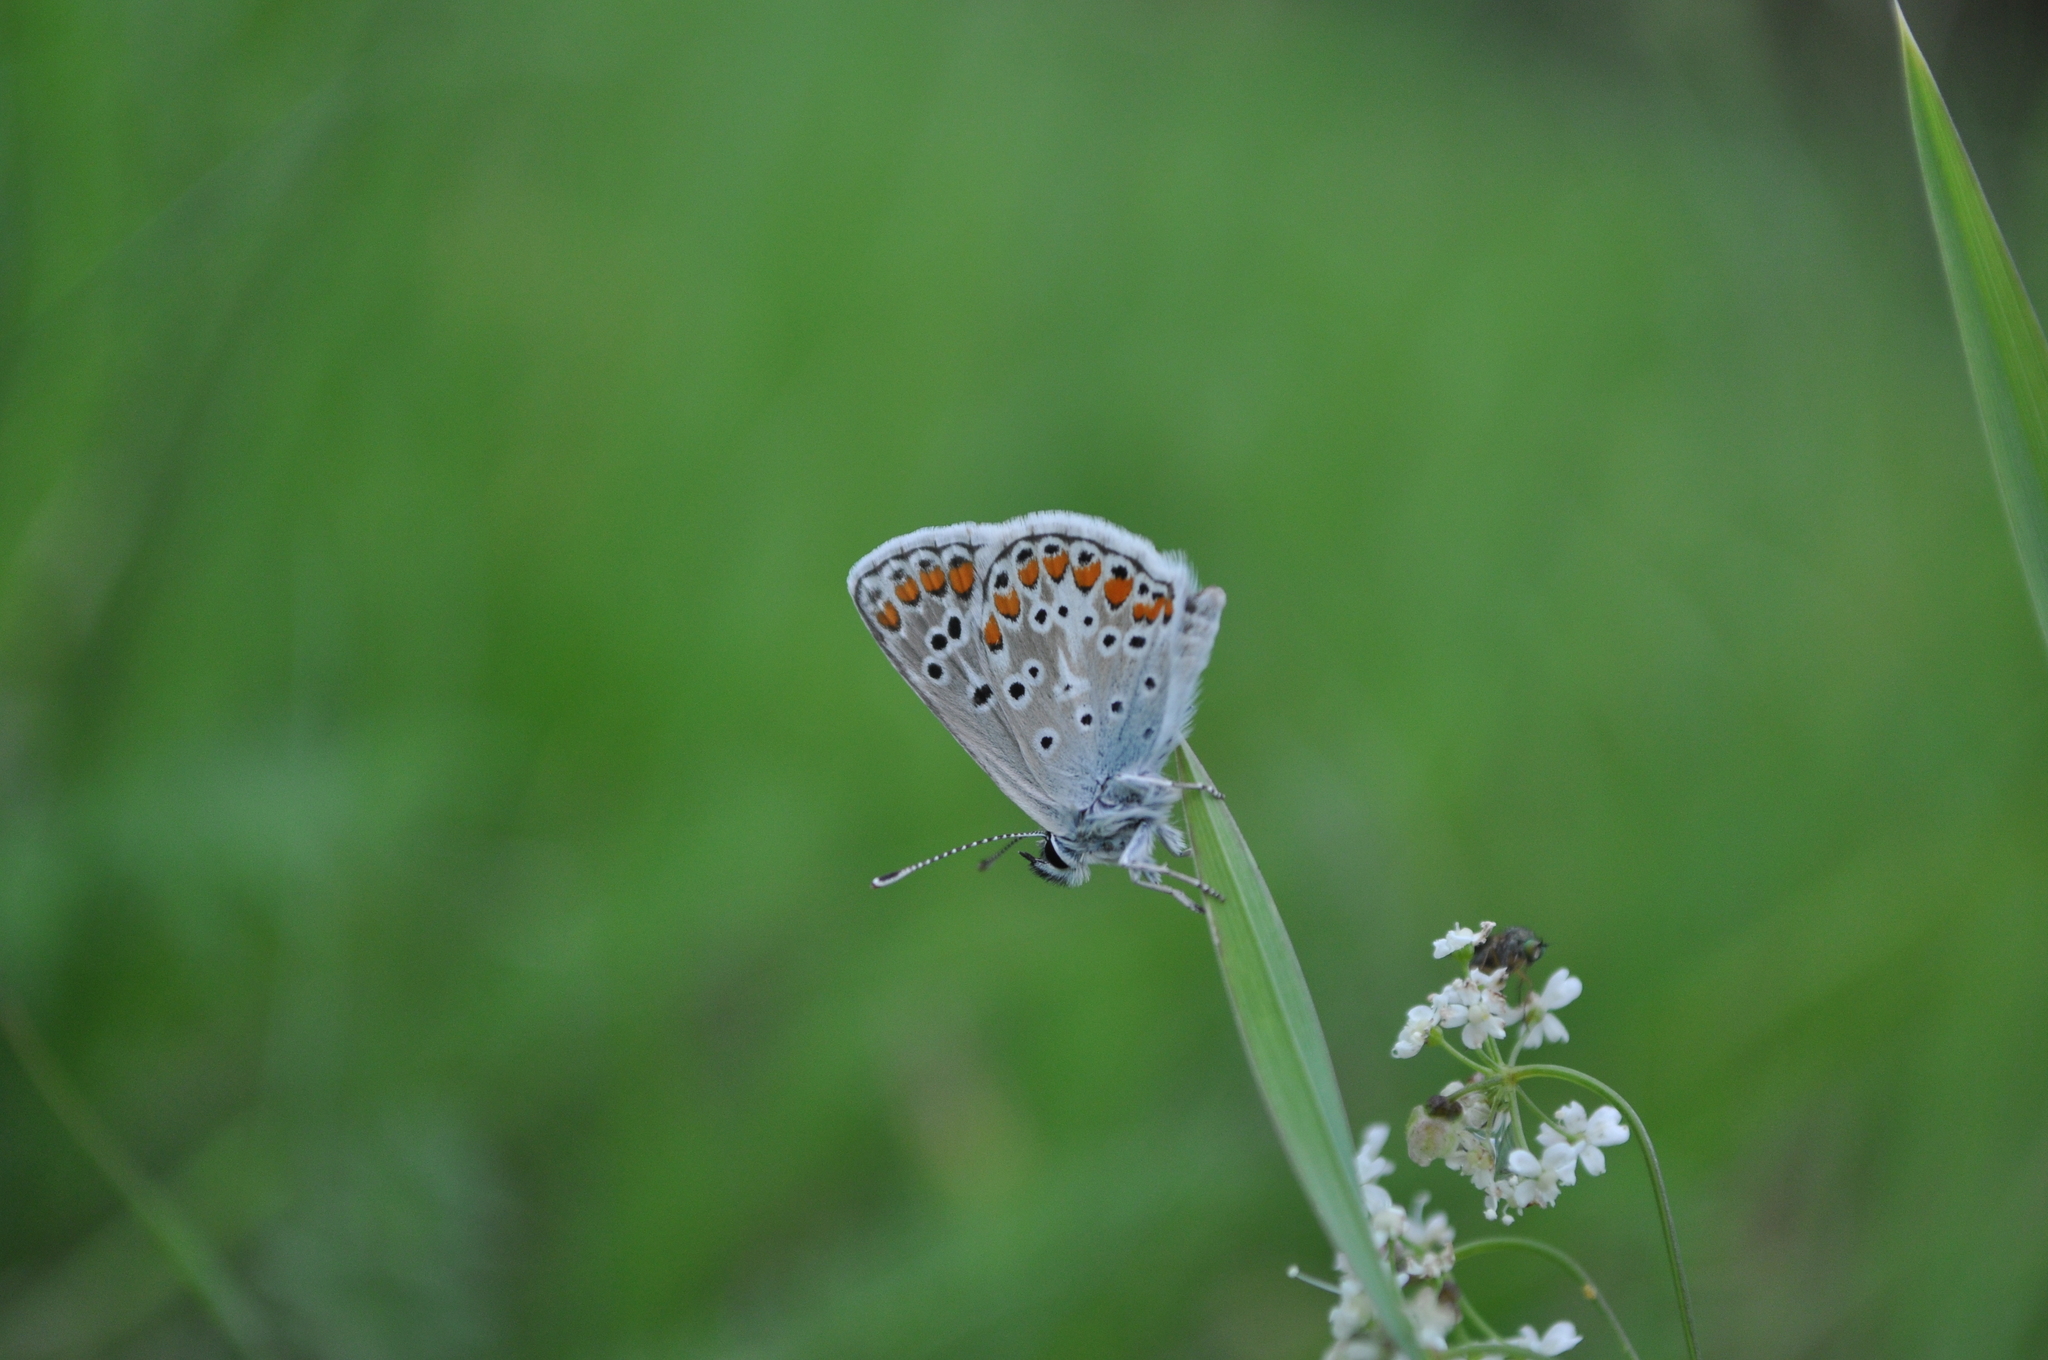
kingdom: Animalia
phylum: Arthropoda
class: Insecta
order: Lepidoptera
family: Lycaenidae
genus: Aricia
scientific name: Aricia agestis
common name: Brown argus
